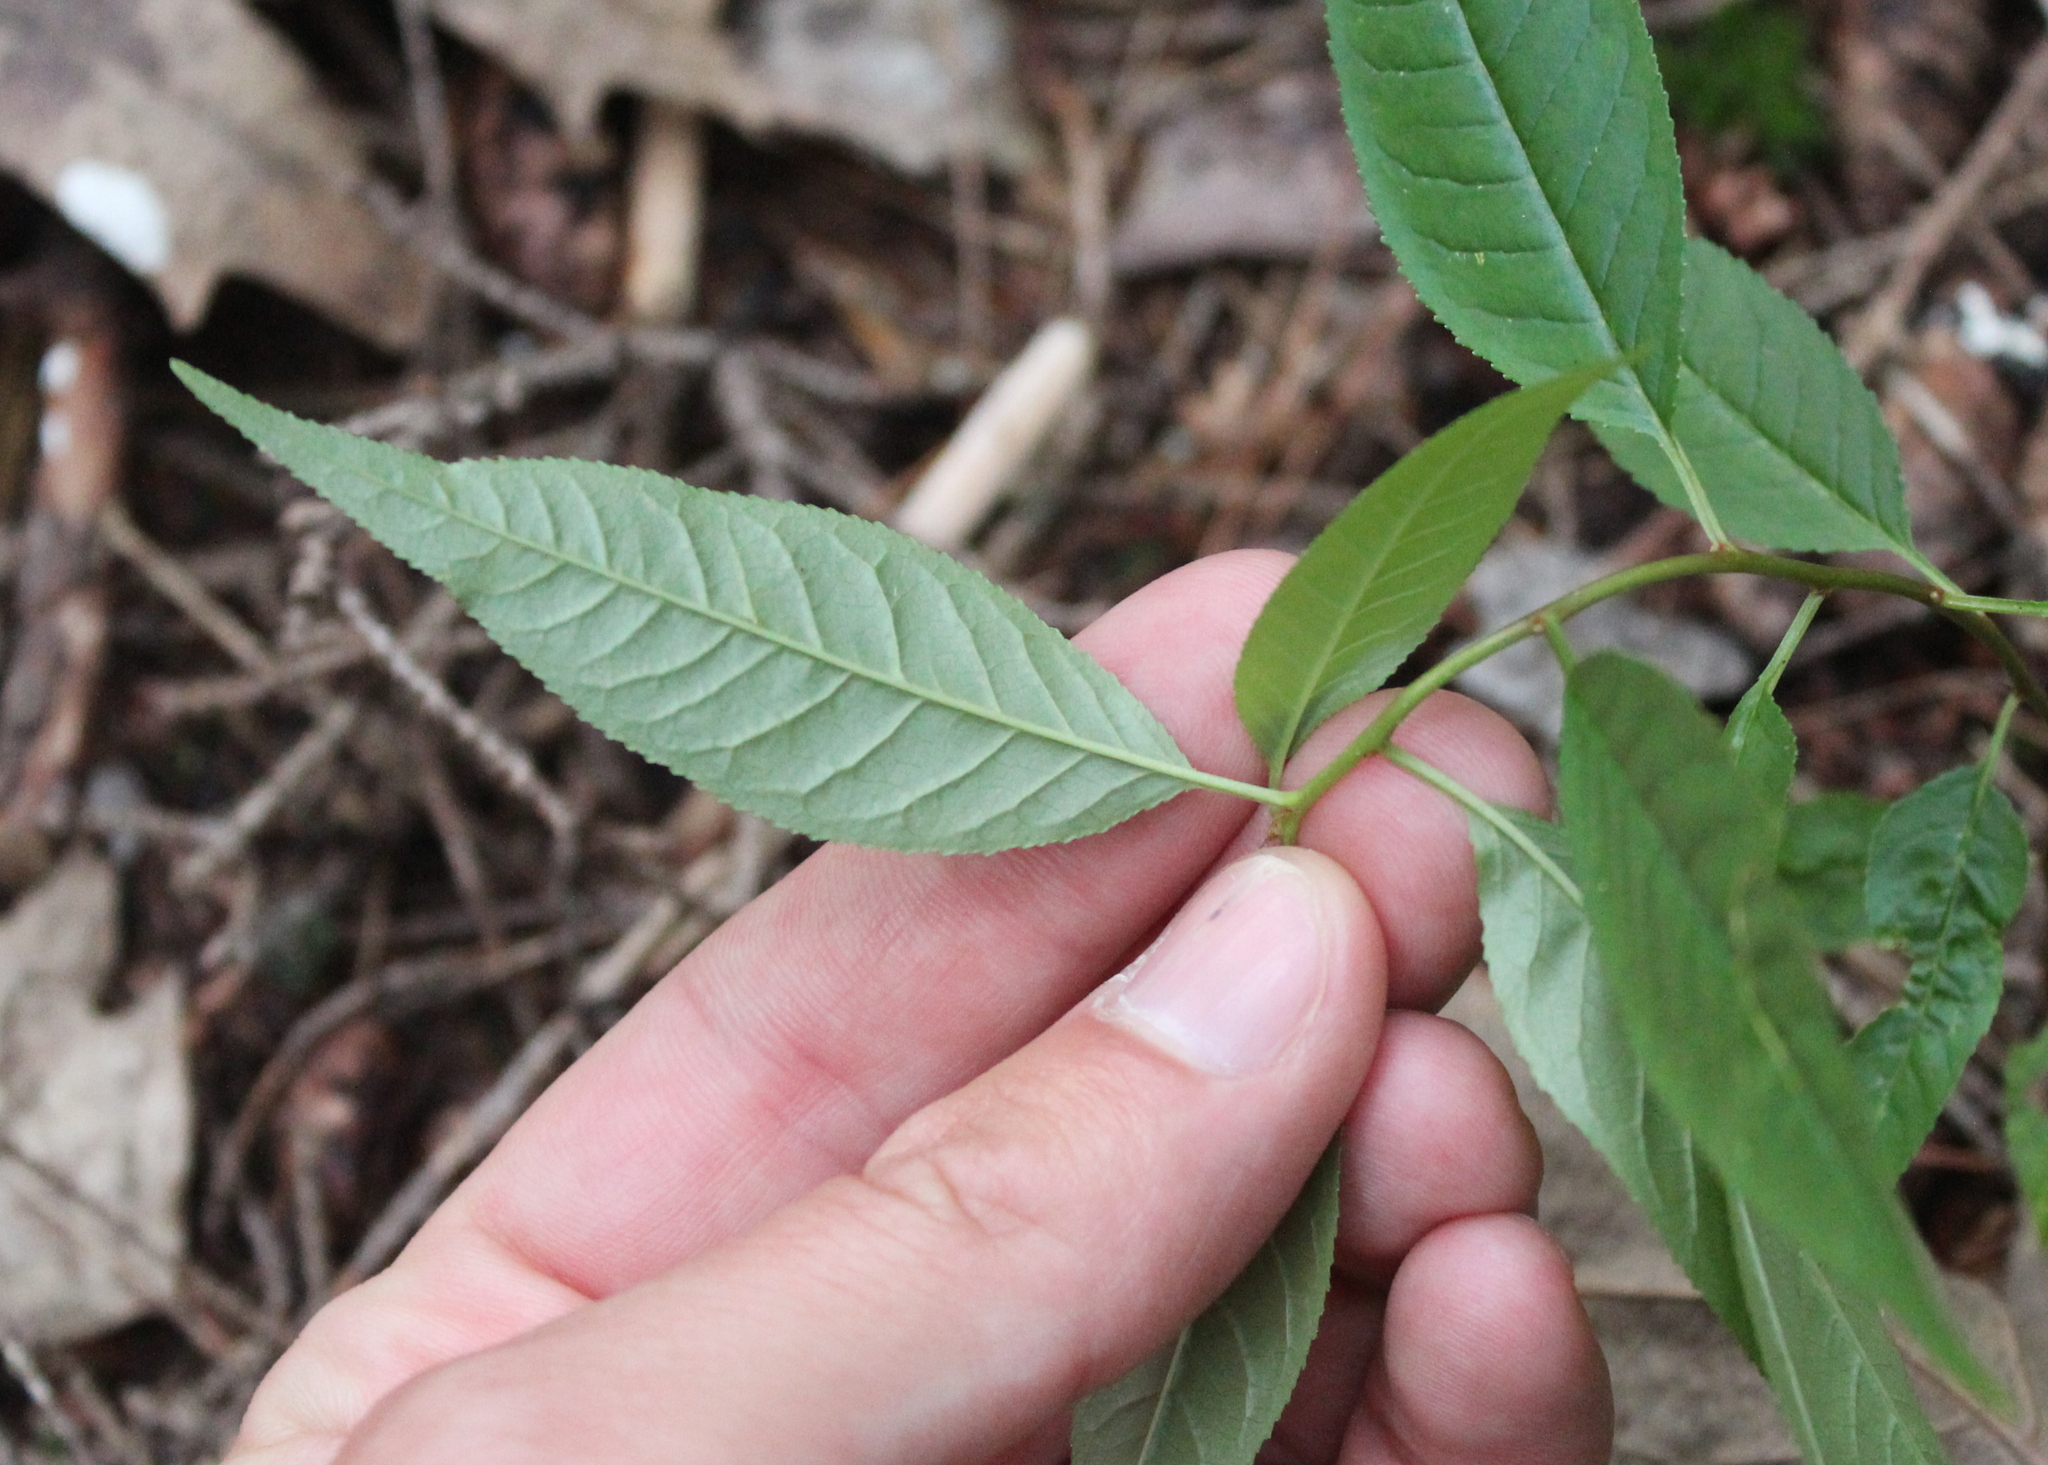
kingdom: Plantae
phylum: Tracheophyta
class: Magnoliopsida
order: Rosales
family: Rosaceae
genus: Prunus
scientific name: Prunus pensylvanica
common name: Pin cherry
